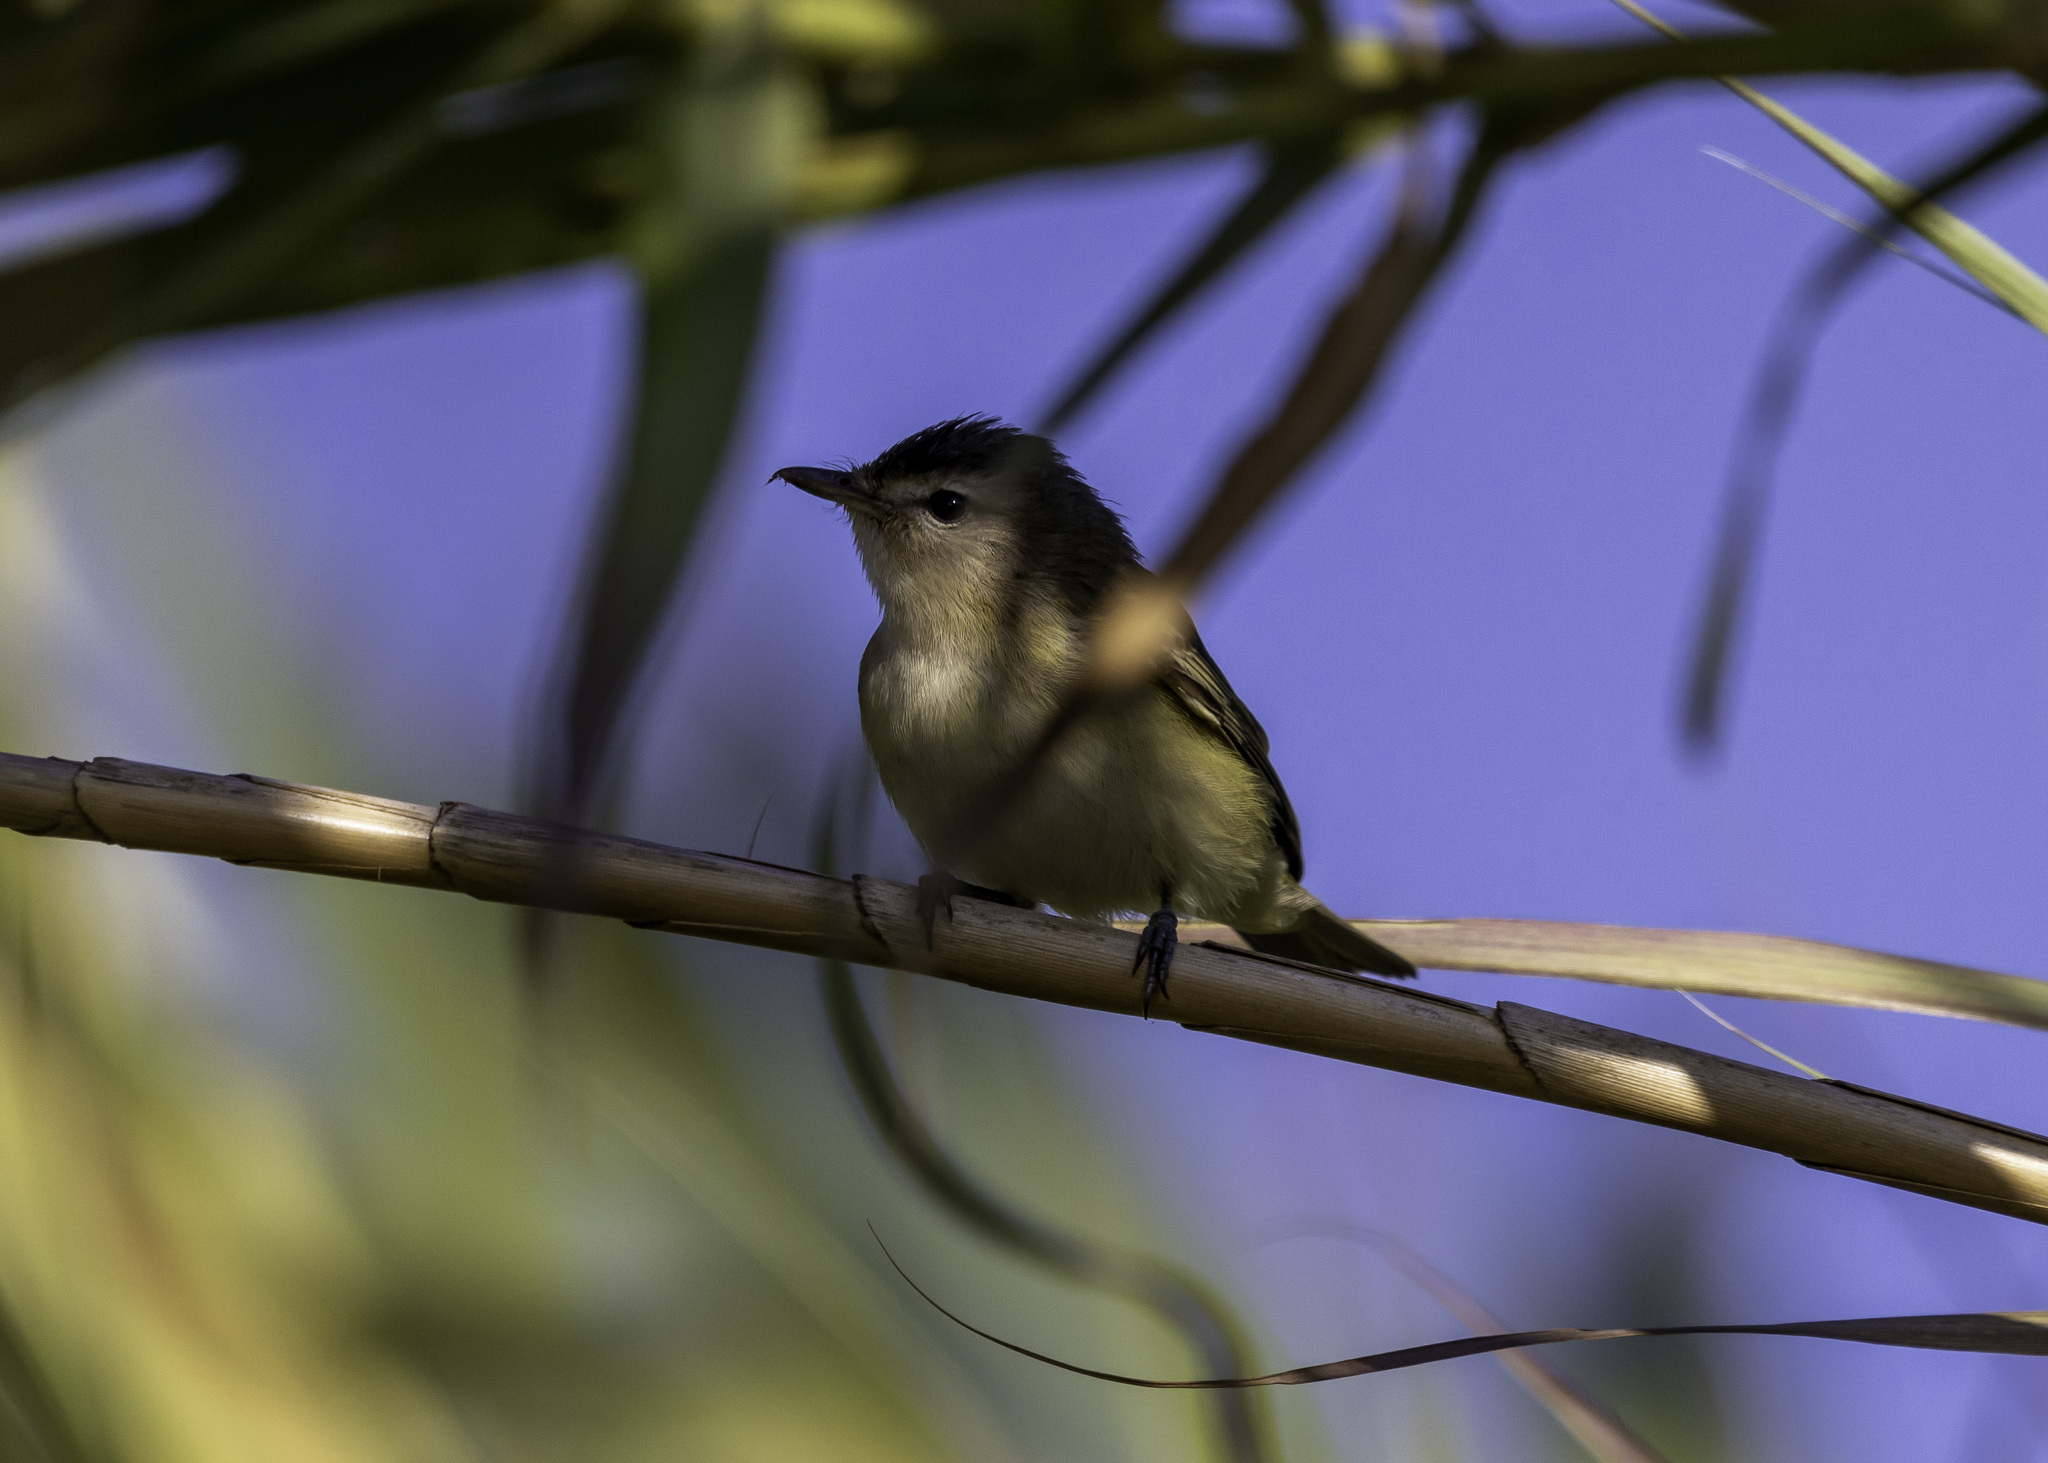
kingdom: Animalia
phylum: Chordata
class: Aves
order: Passeriformes
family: Vireonidae
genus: Vireo
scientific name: Vireo gilvus
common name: Warbling vireo
